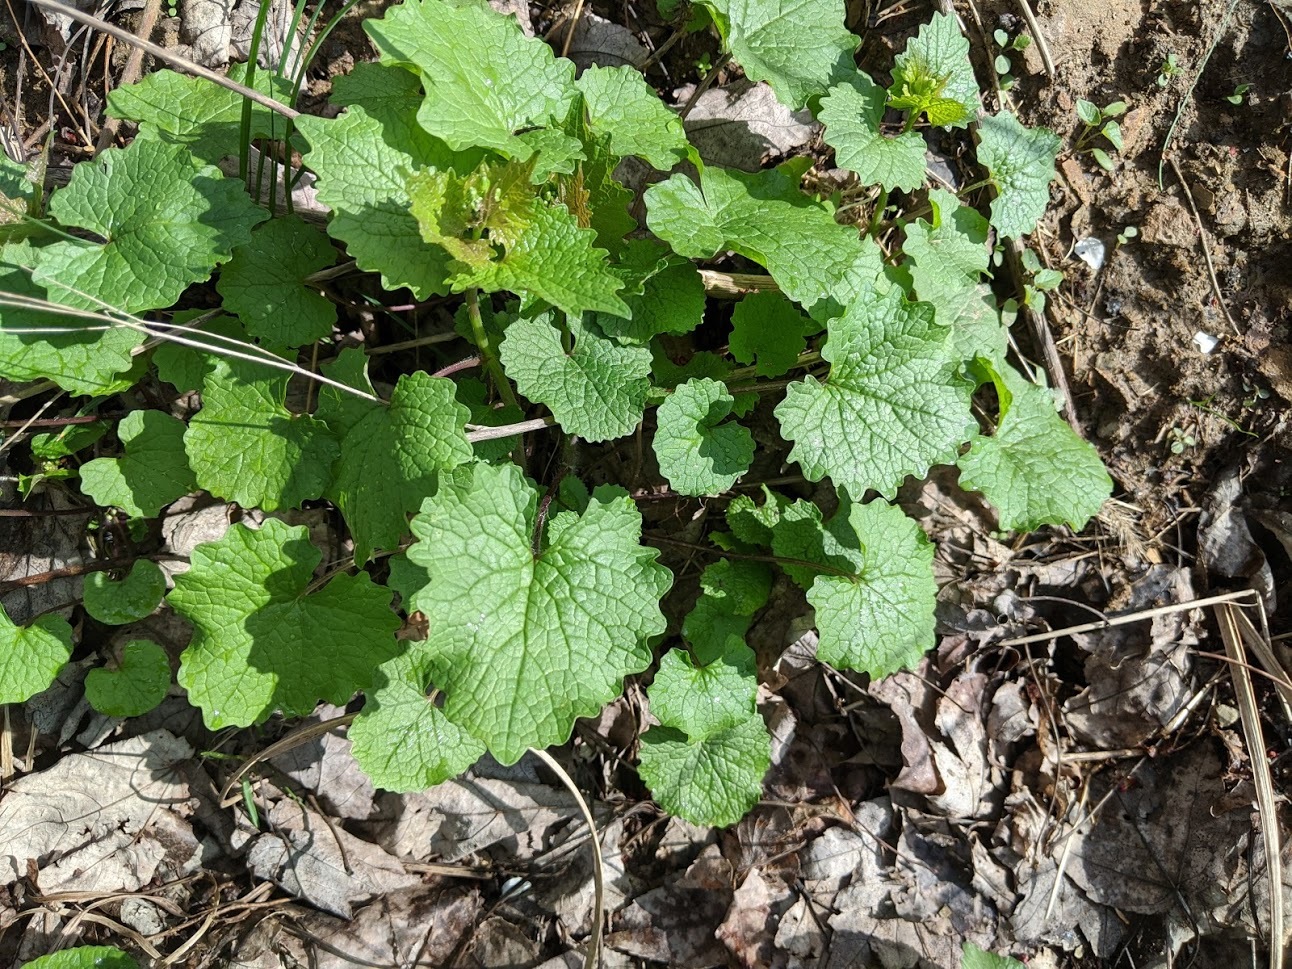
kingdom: Plantae
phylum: Tracheophyta
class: Magnoliopsida
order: Brassicales
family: Brassicaceae
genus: Alliaria
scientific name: Alliaria petiolata
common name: Garlic mustard
